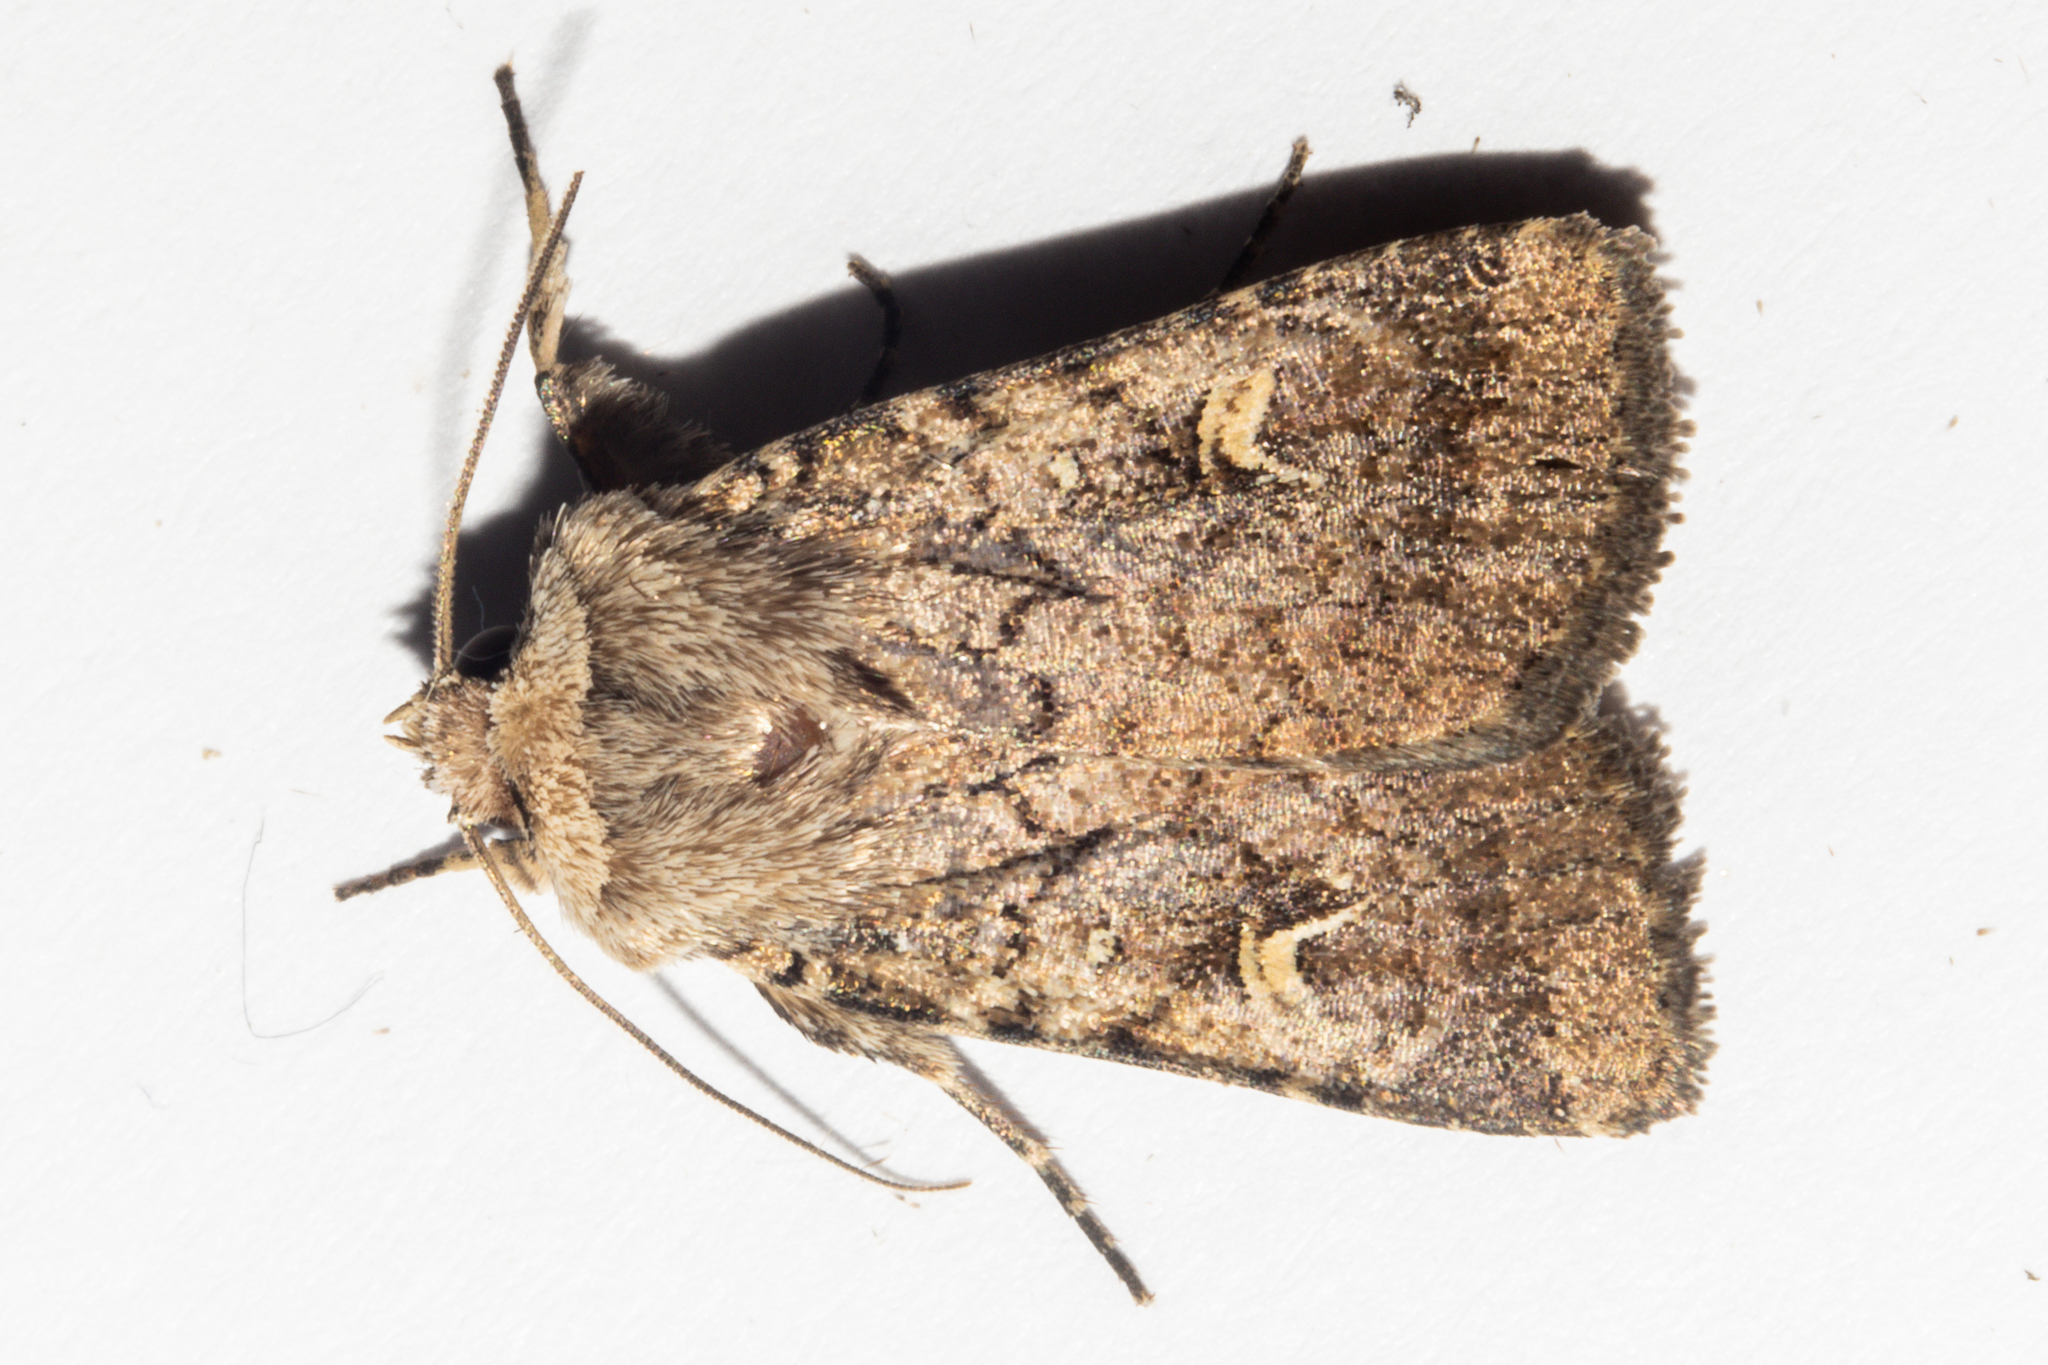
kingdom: Animalia
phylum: Arthropoda
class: Insecta
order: Lepidoptera
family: Noctuidae
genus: Proteuxoa
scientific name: Proteuxoa tetronycha
